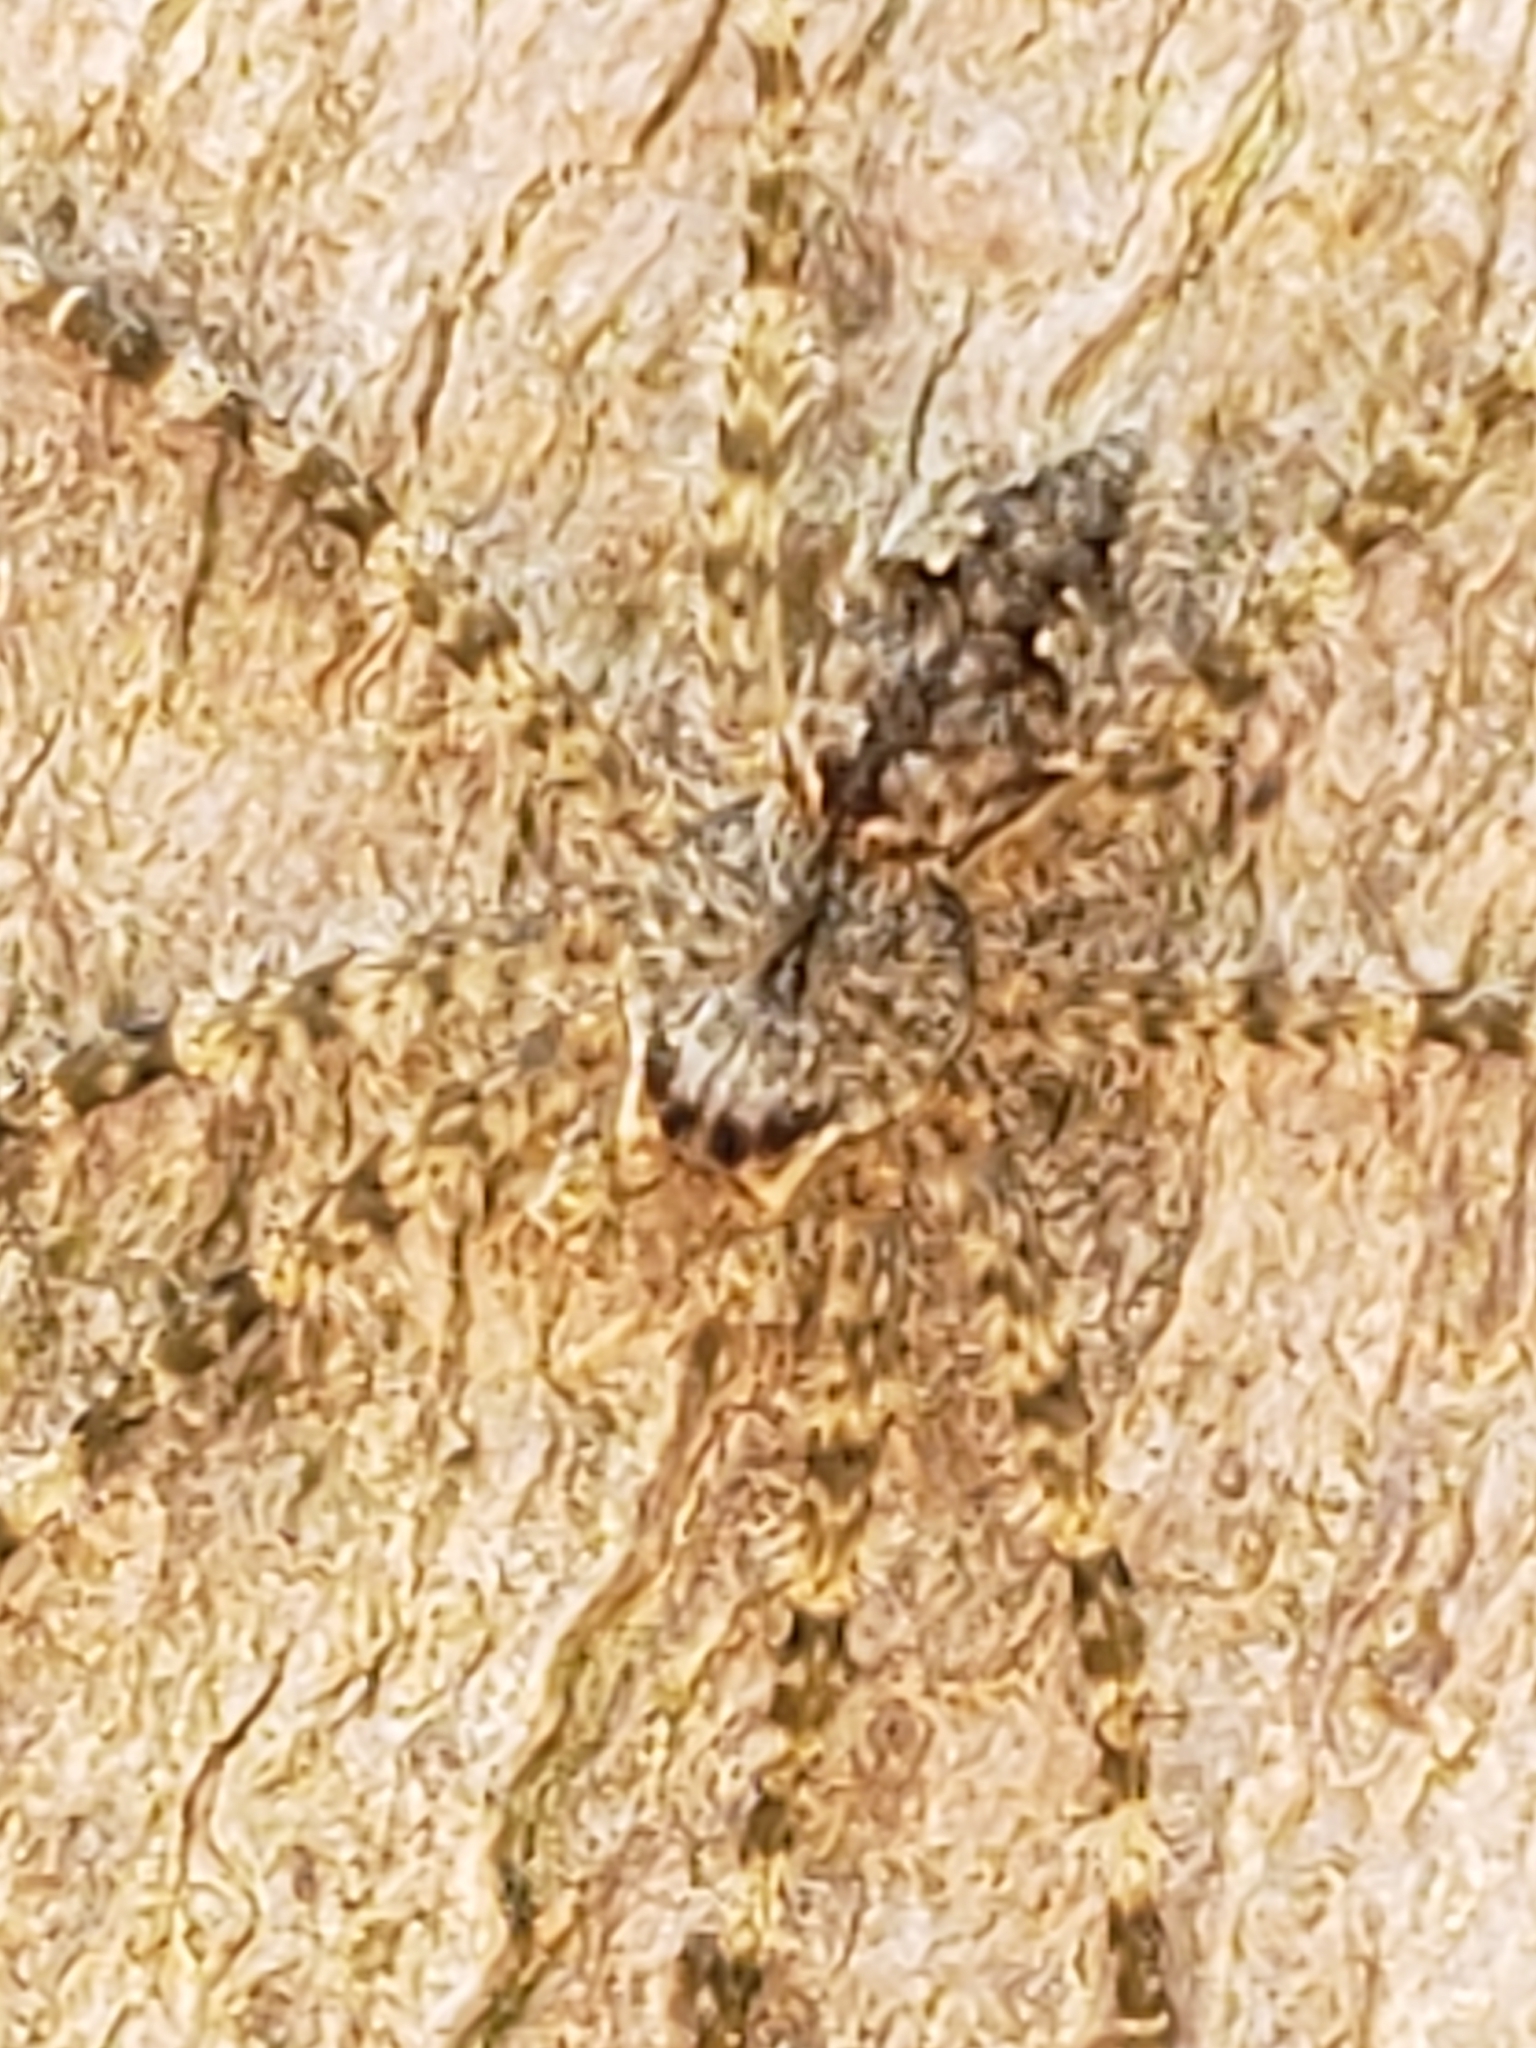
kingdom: Animalia
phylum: Arthropoda
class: Arachnida
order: Araneae
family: Pisauridae
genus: Dolomedes
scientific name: Dolomedes albineus
